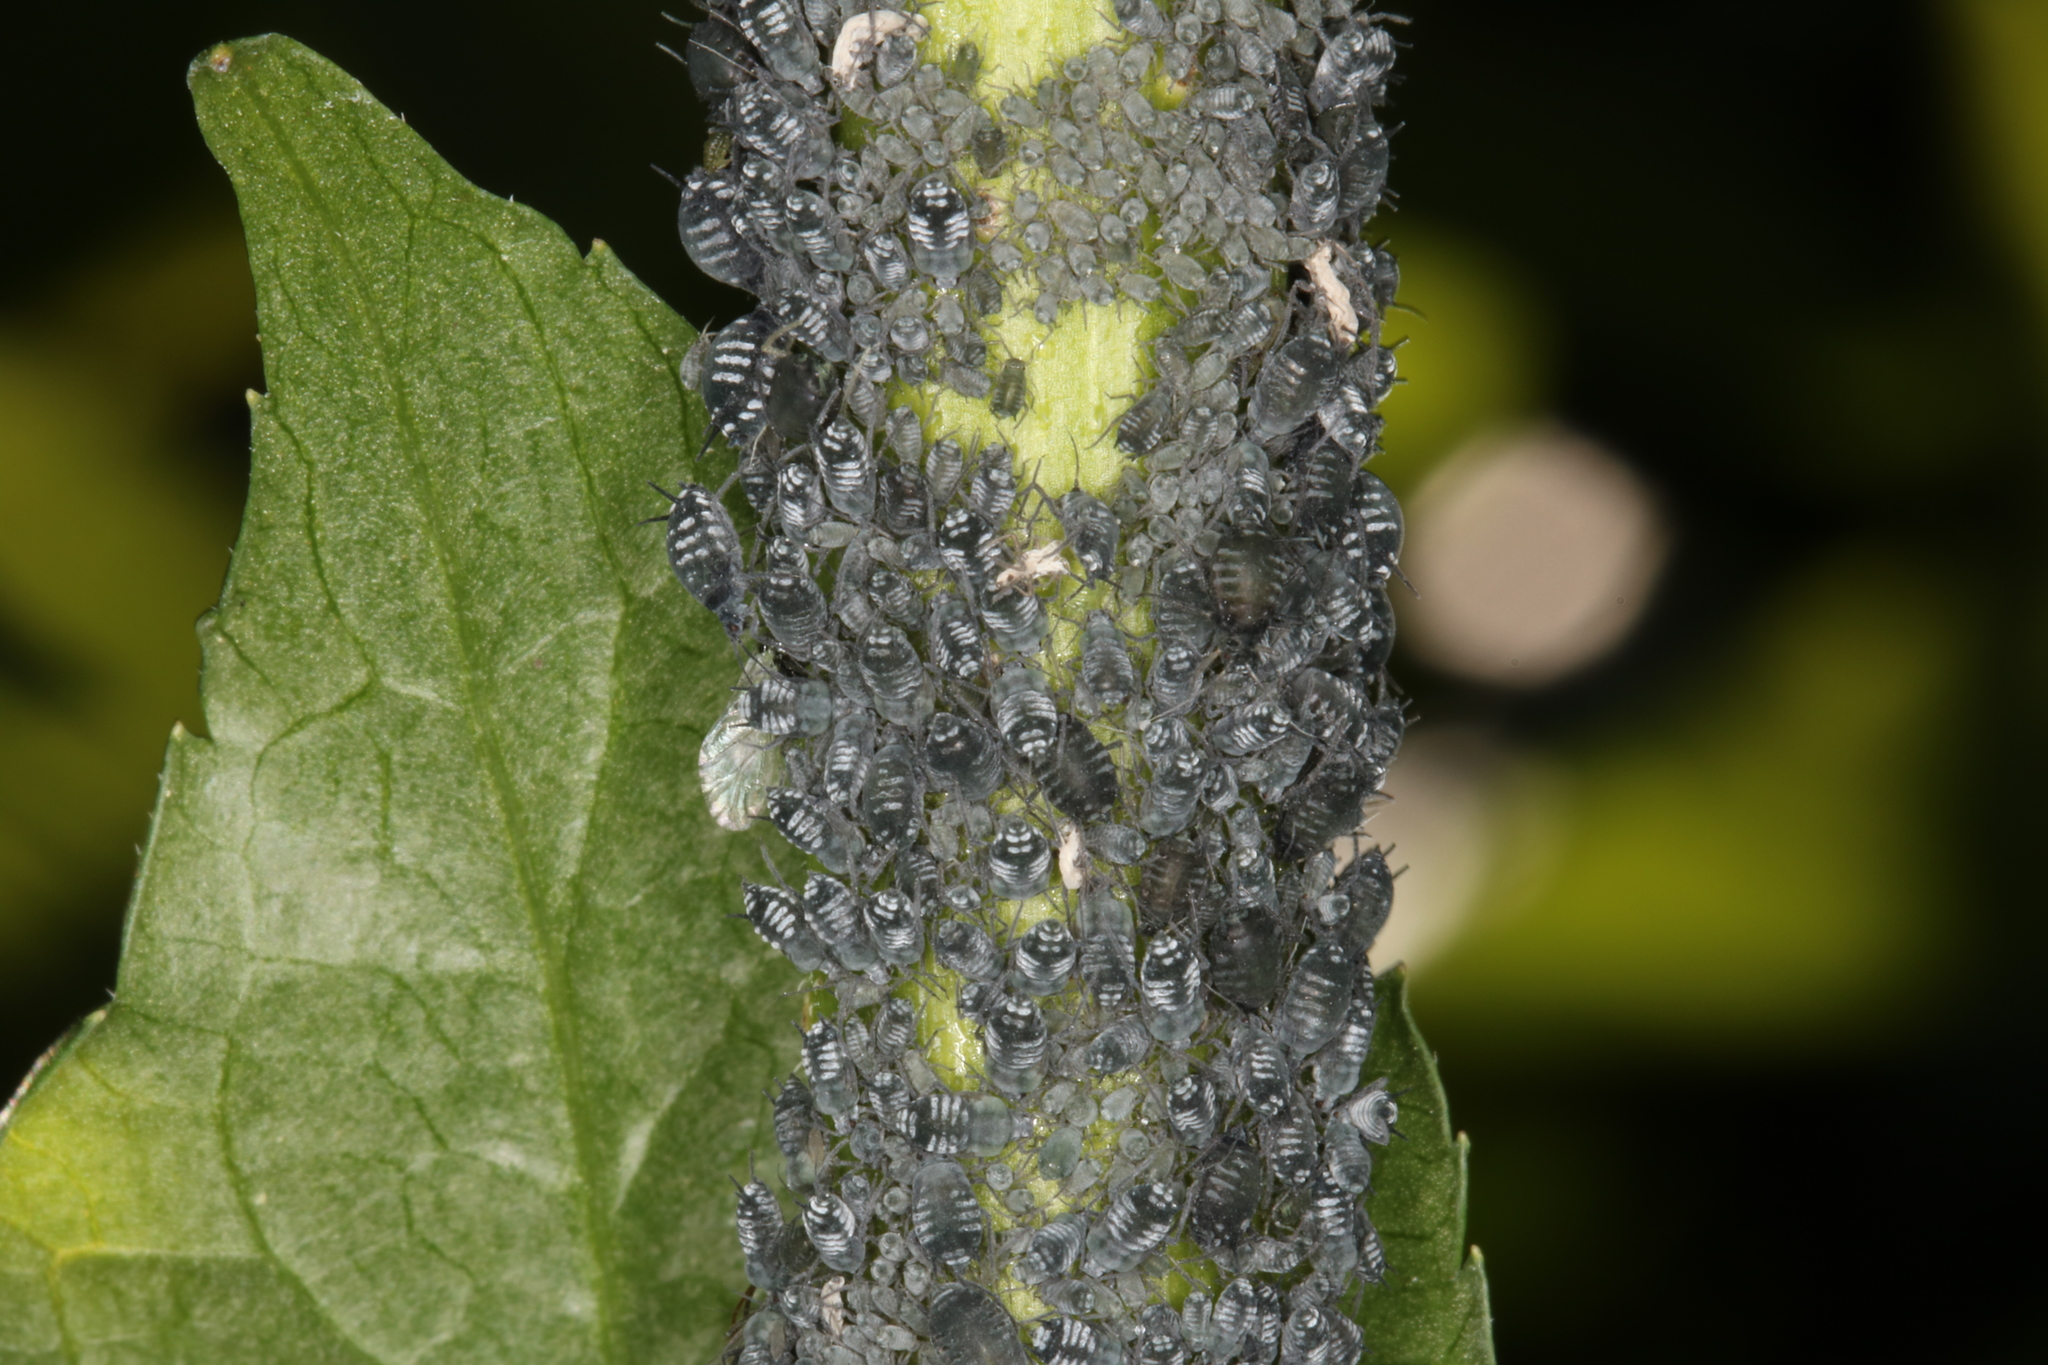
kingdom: Animalia
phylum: Arthropoda
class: Insecta
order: Hemiptera
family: Aphididae
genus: Aphis
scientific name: Aphis sambuci
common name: Elder aphid
